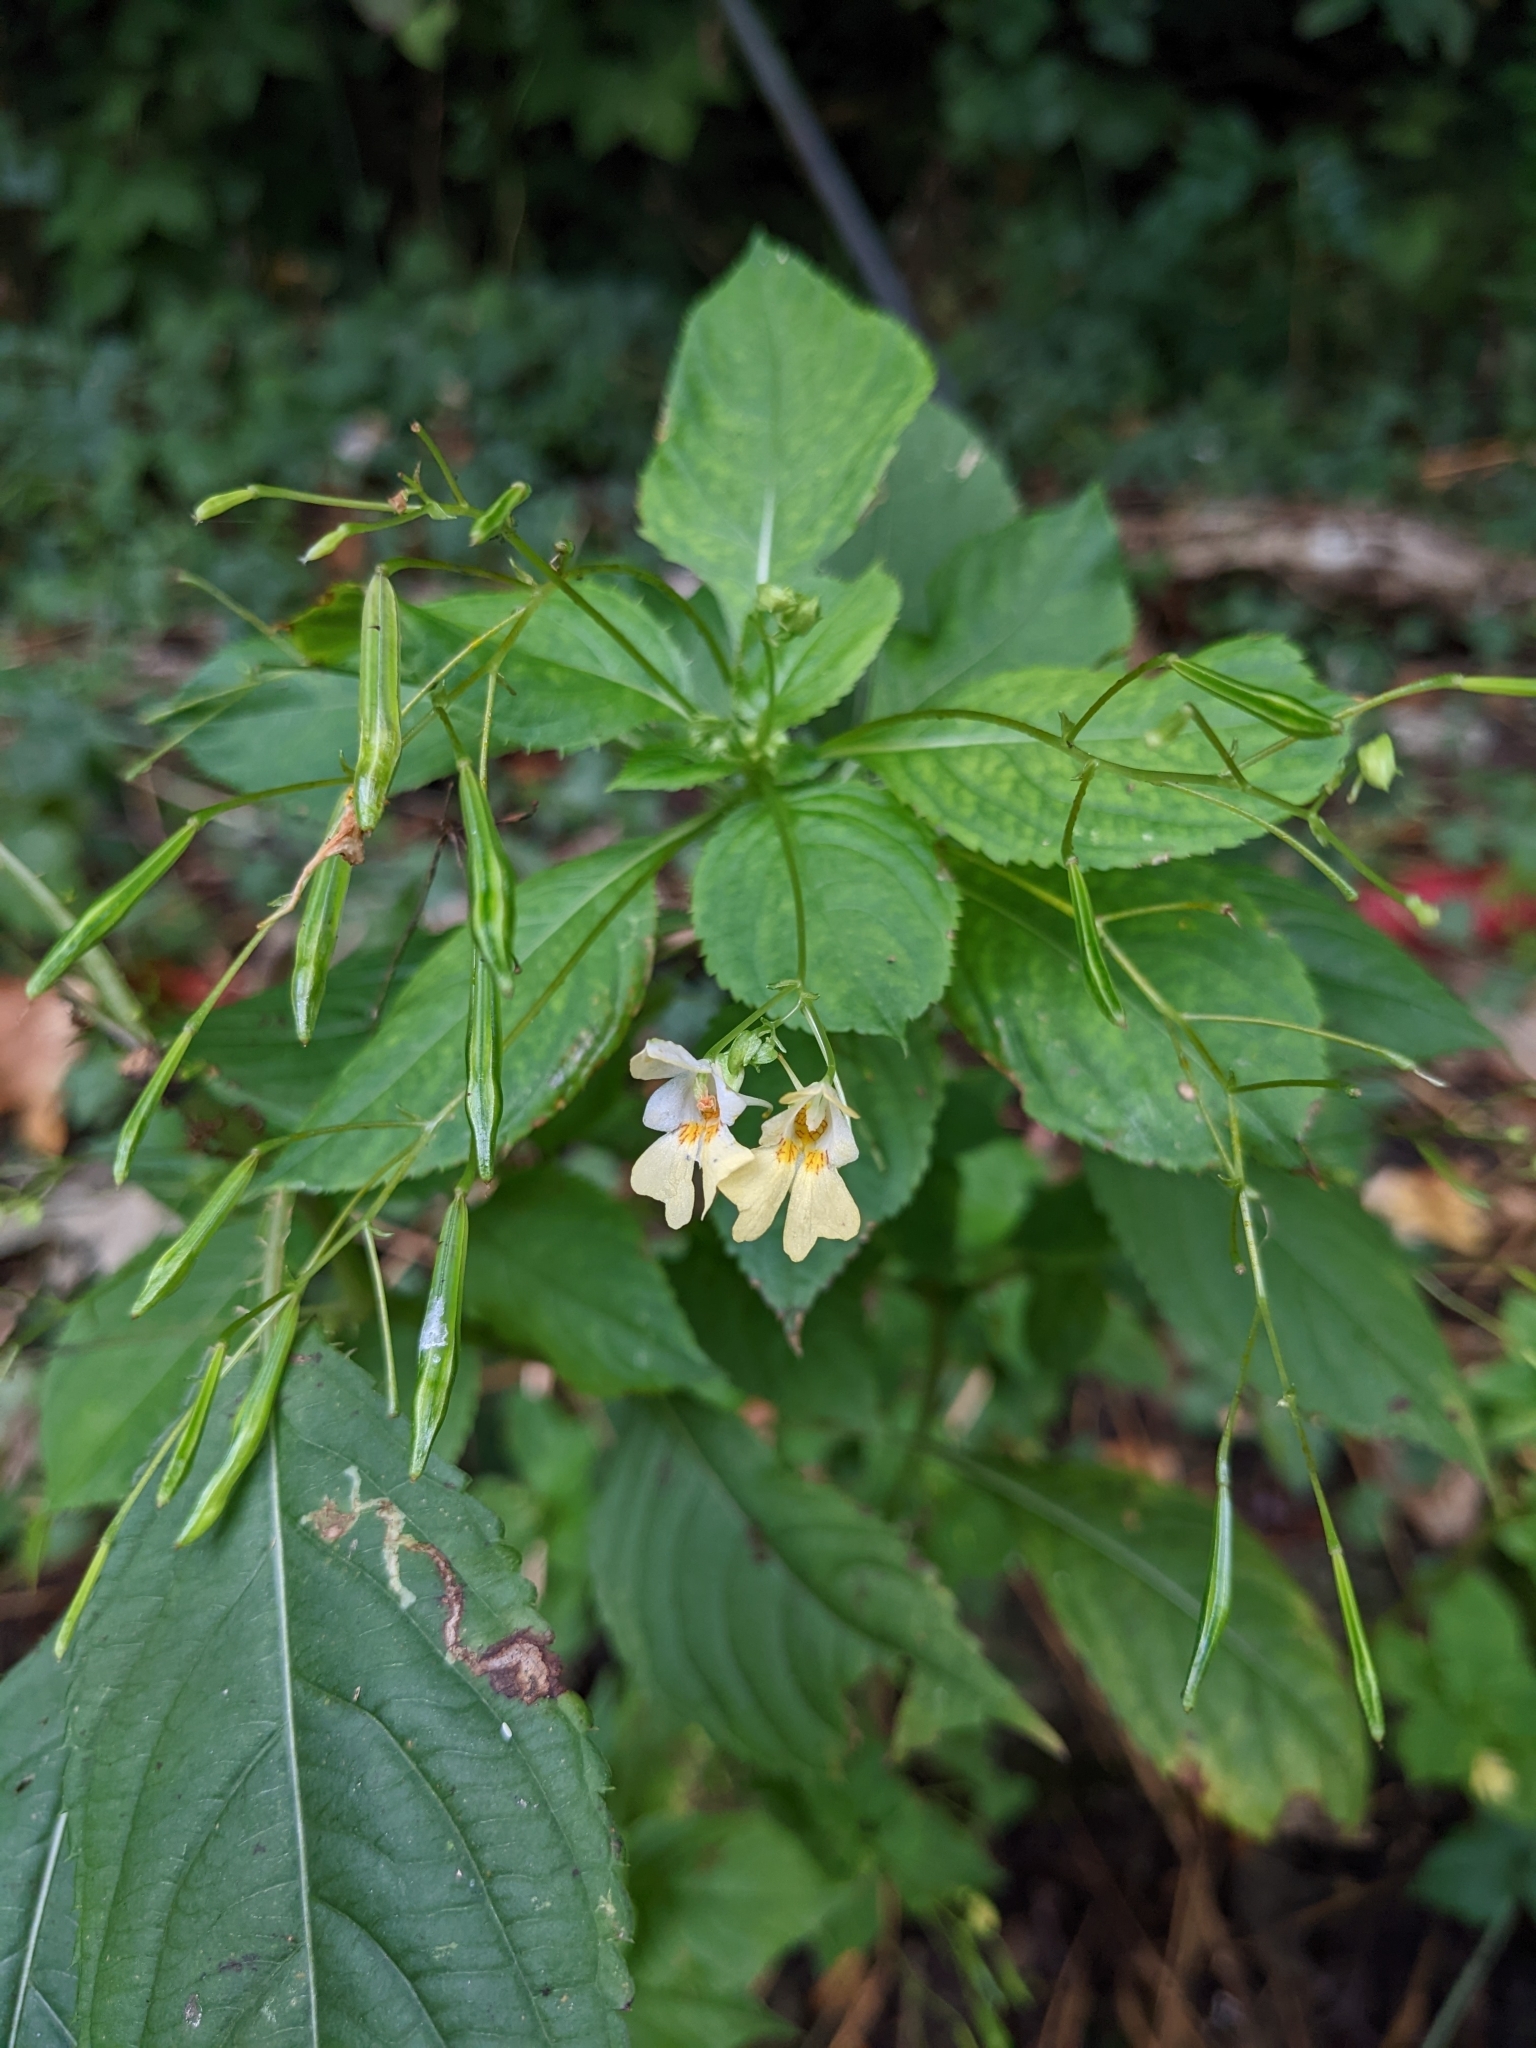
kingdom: Plantae
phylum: Tracheophyta
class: Magnoliopsida
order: Ericales
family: Balsaminaceae
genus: Impatiens
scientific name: Impatiens parviflora
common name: Small balsam
